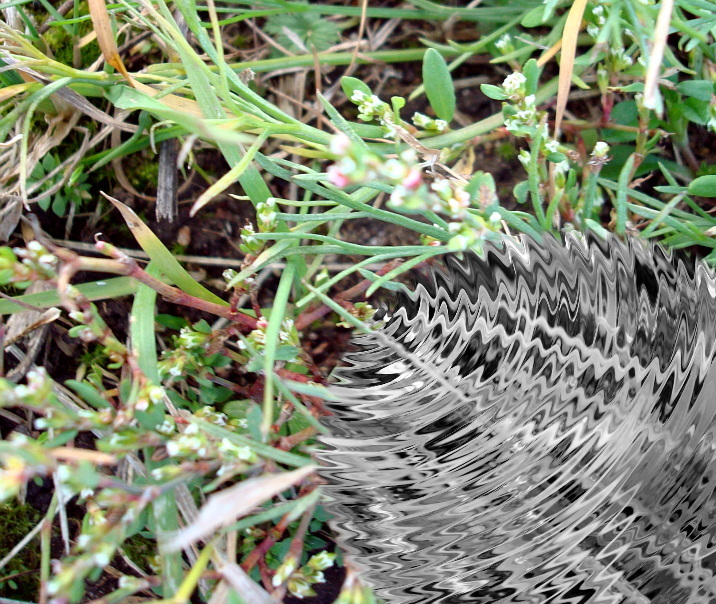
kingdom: Plantae
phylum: Tracheophyta
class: Magnoliopsida
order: Caryophyllales
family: Polygonaceae
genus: Polygonum
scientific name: Polygonum aviculare
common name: Prostrate knotweed
